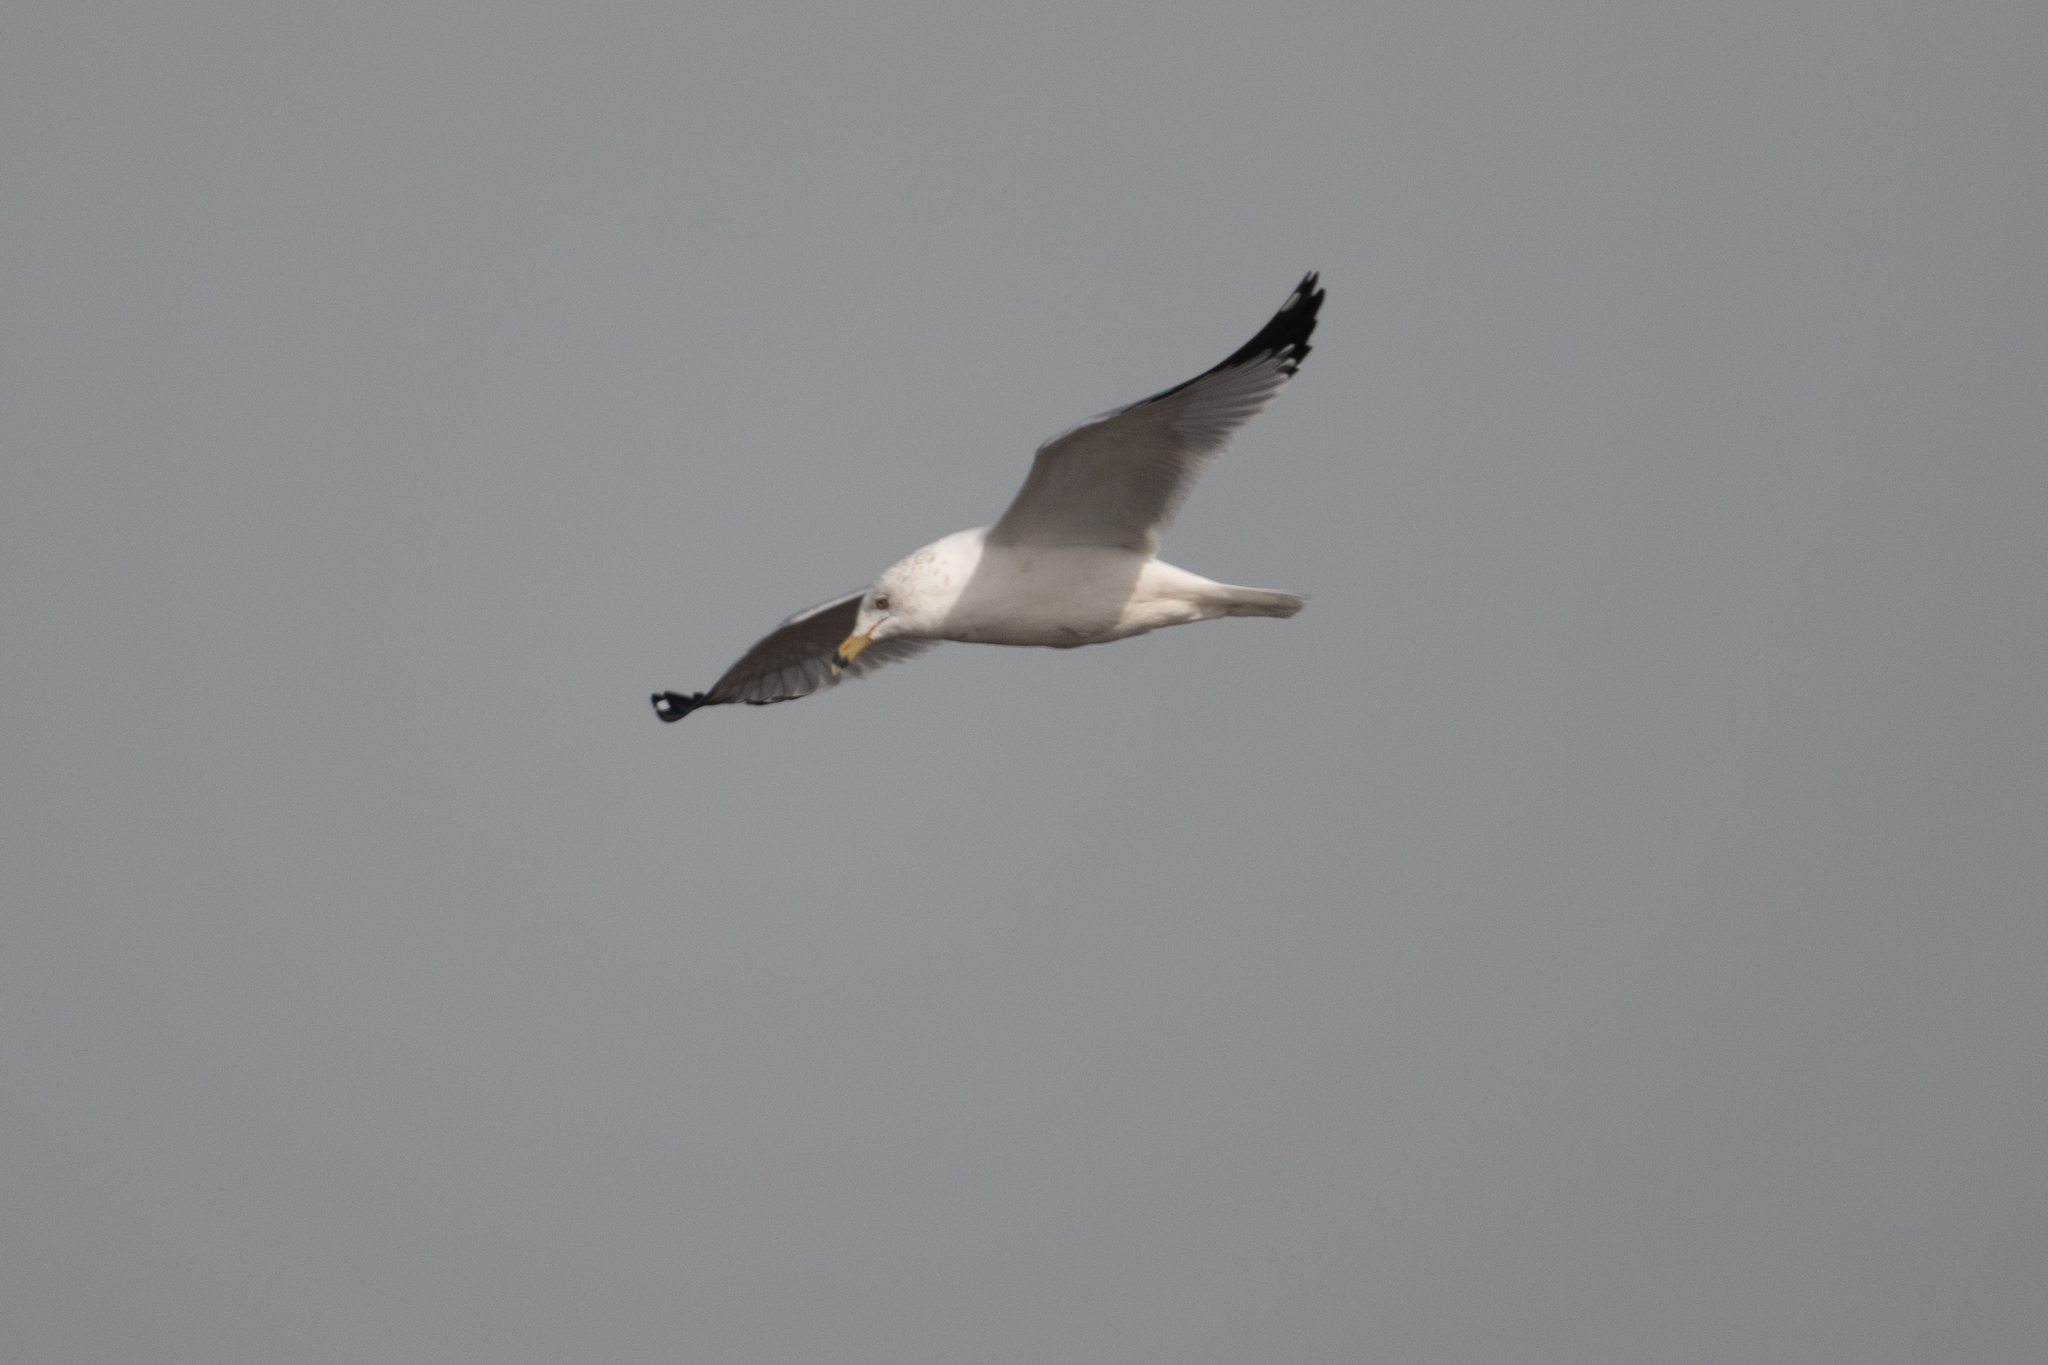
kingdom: Animalia
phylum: Chordata
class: Aves
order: Charadriiformes
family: Laridae
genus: Larus
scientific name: Larus delawarensis
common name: Ring-billed gull
